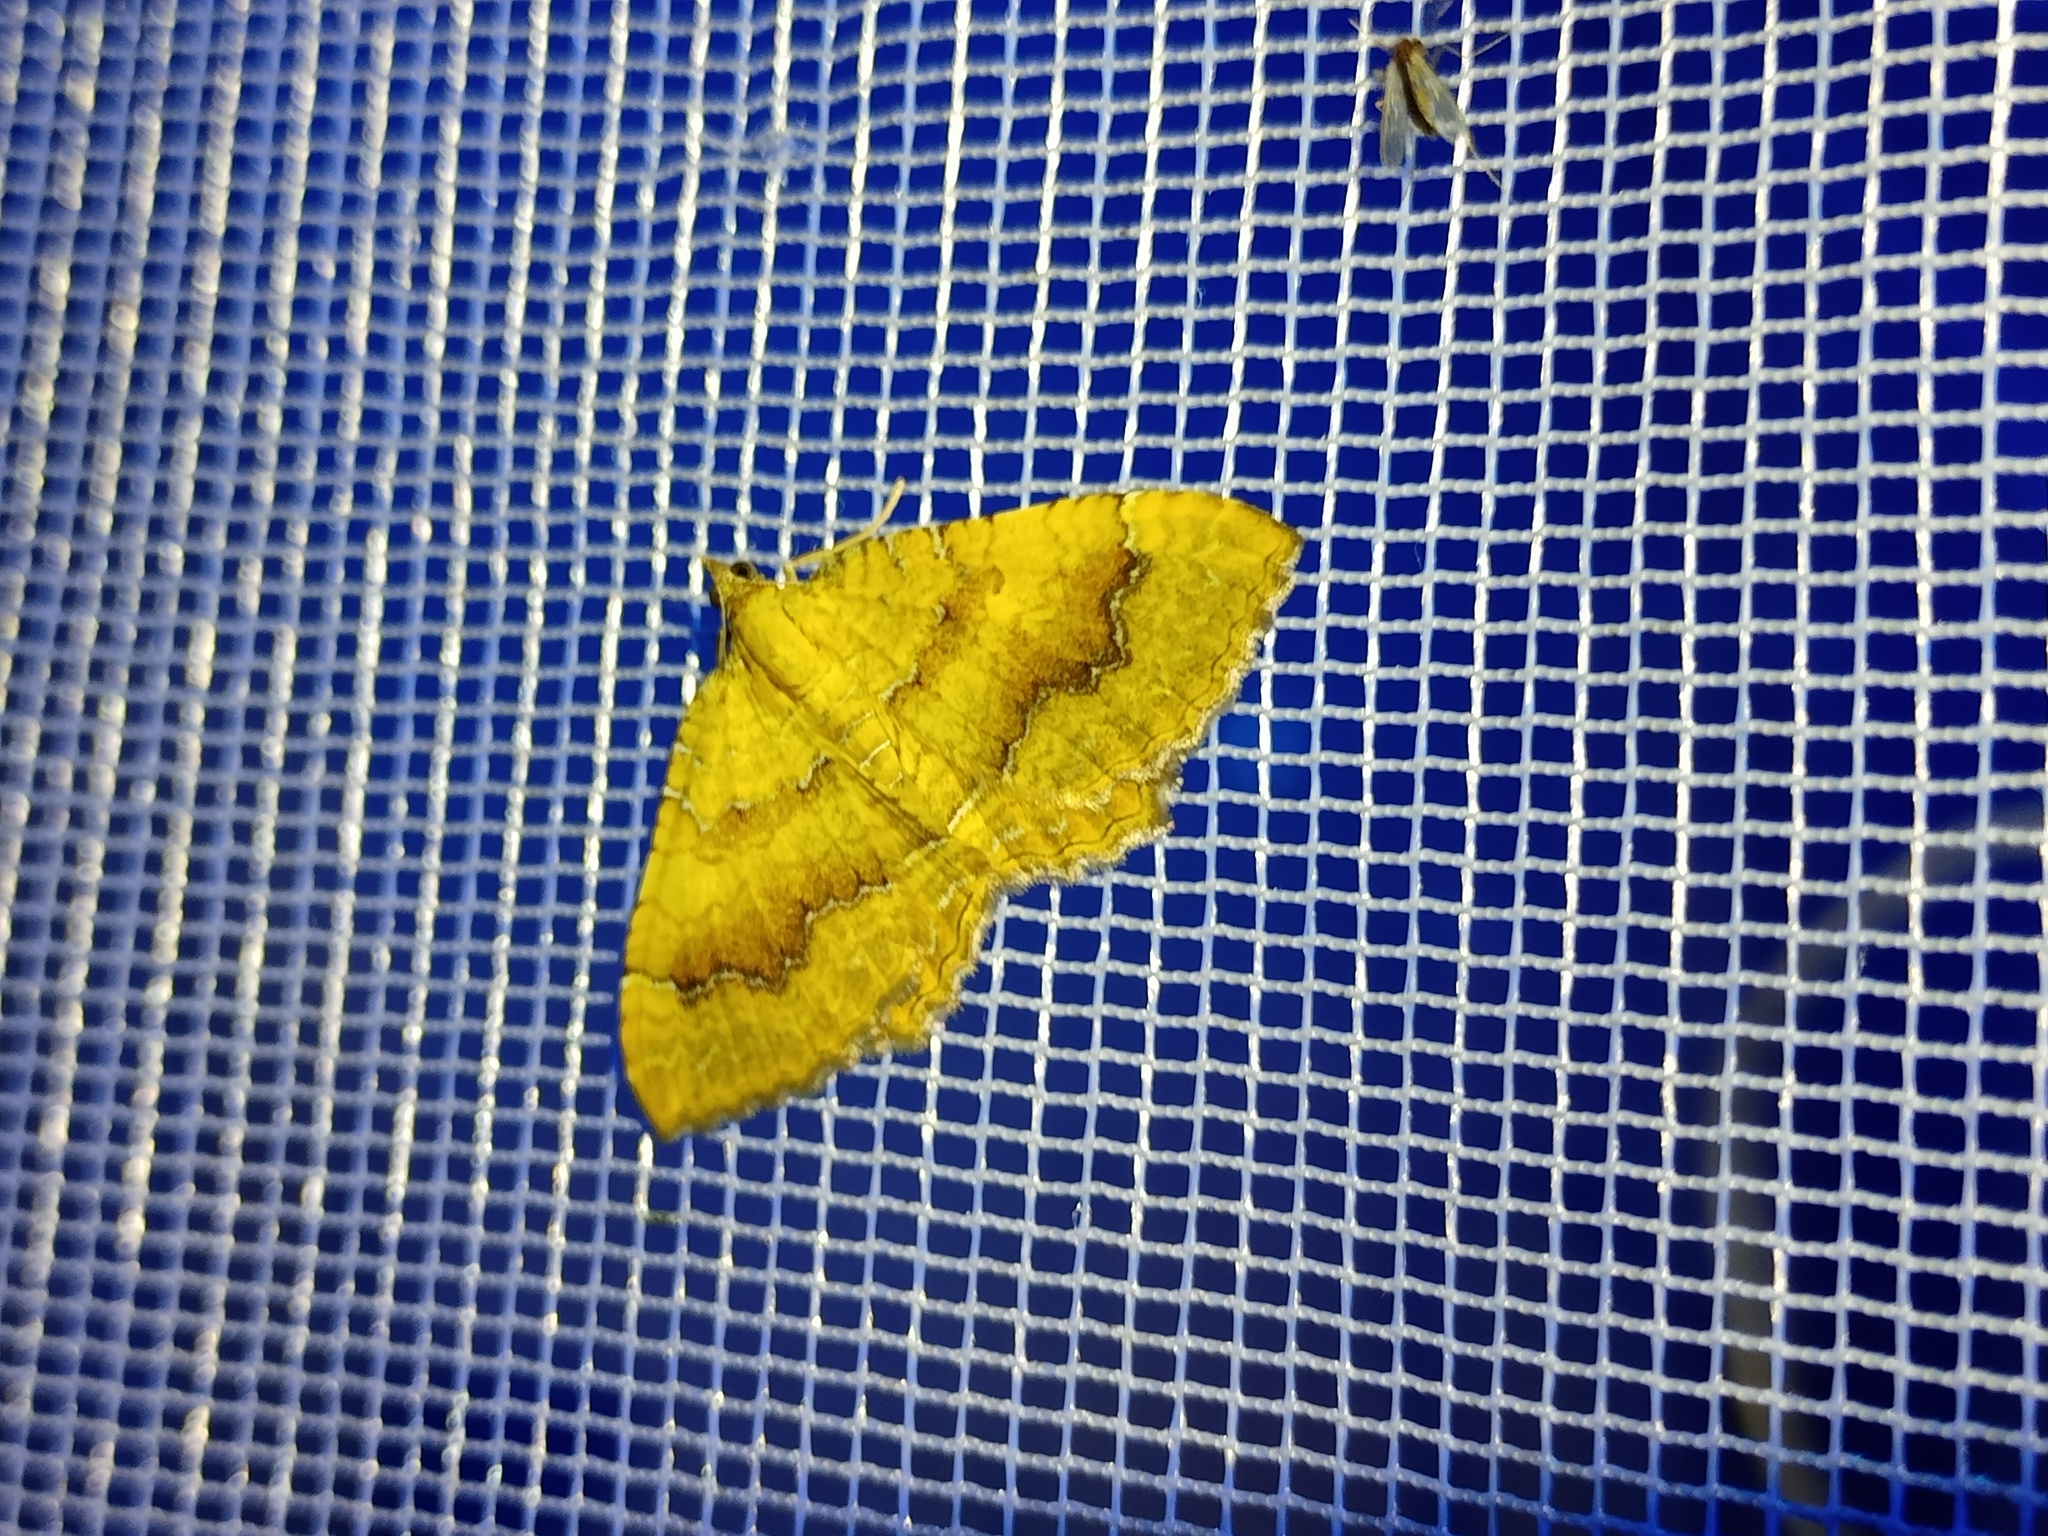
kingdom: Animalia
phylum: Arthropoda
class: Insecta
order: Lepidoptera
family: Geometridae
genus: Camptogramma
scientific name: Camptogramma bilineata
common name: Yellow shell
